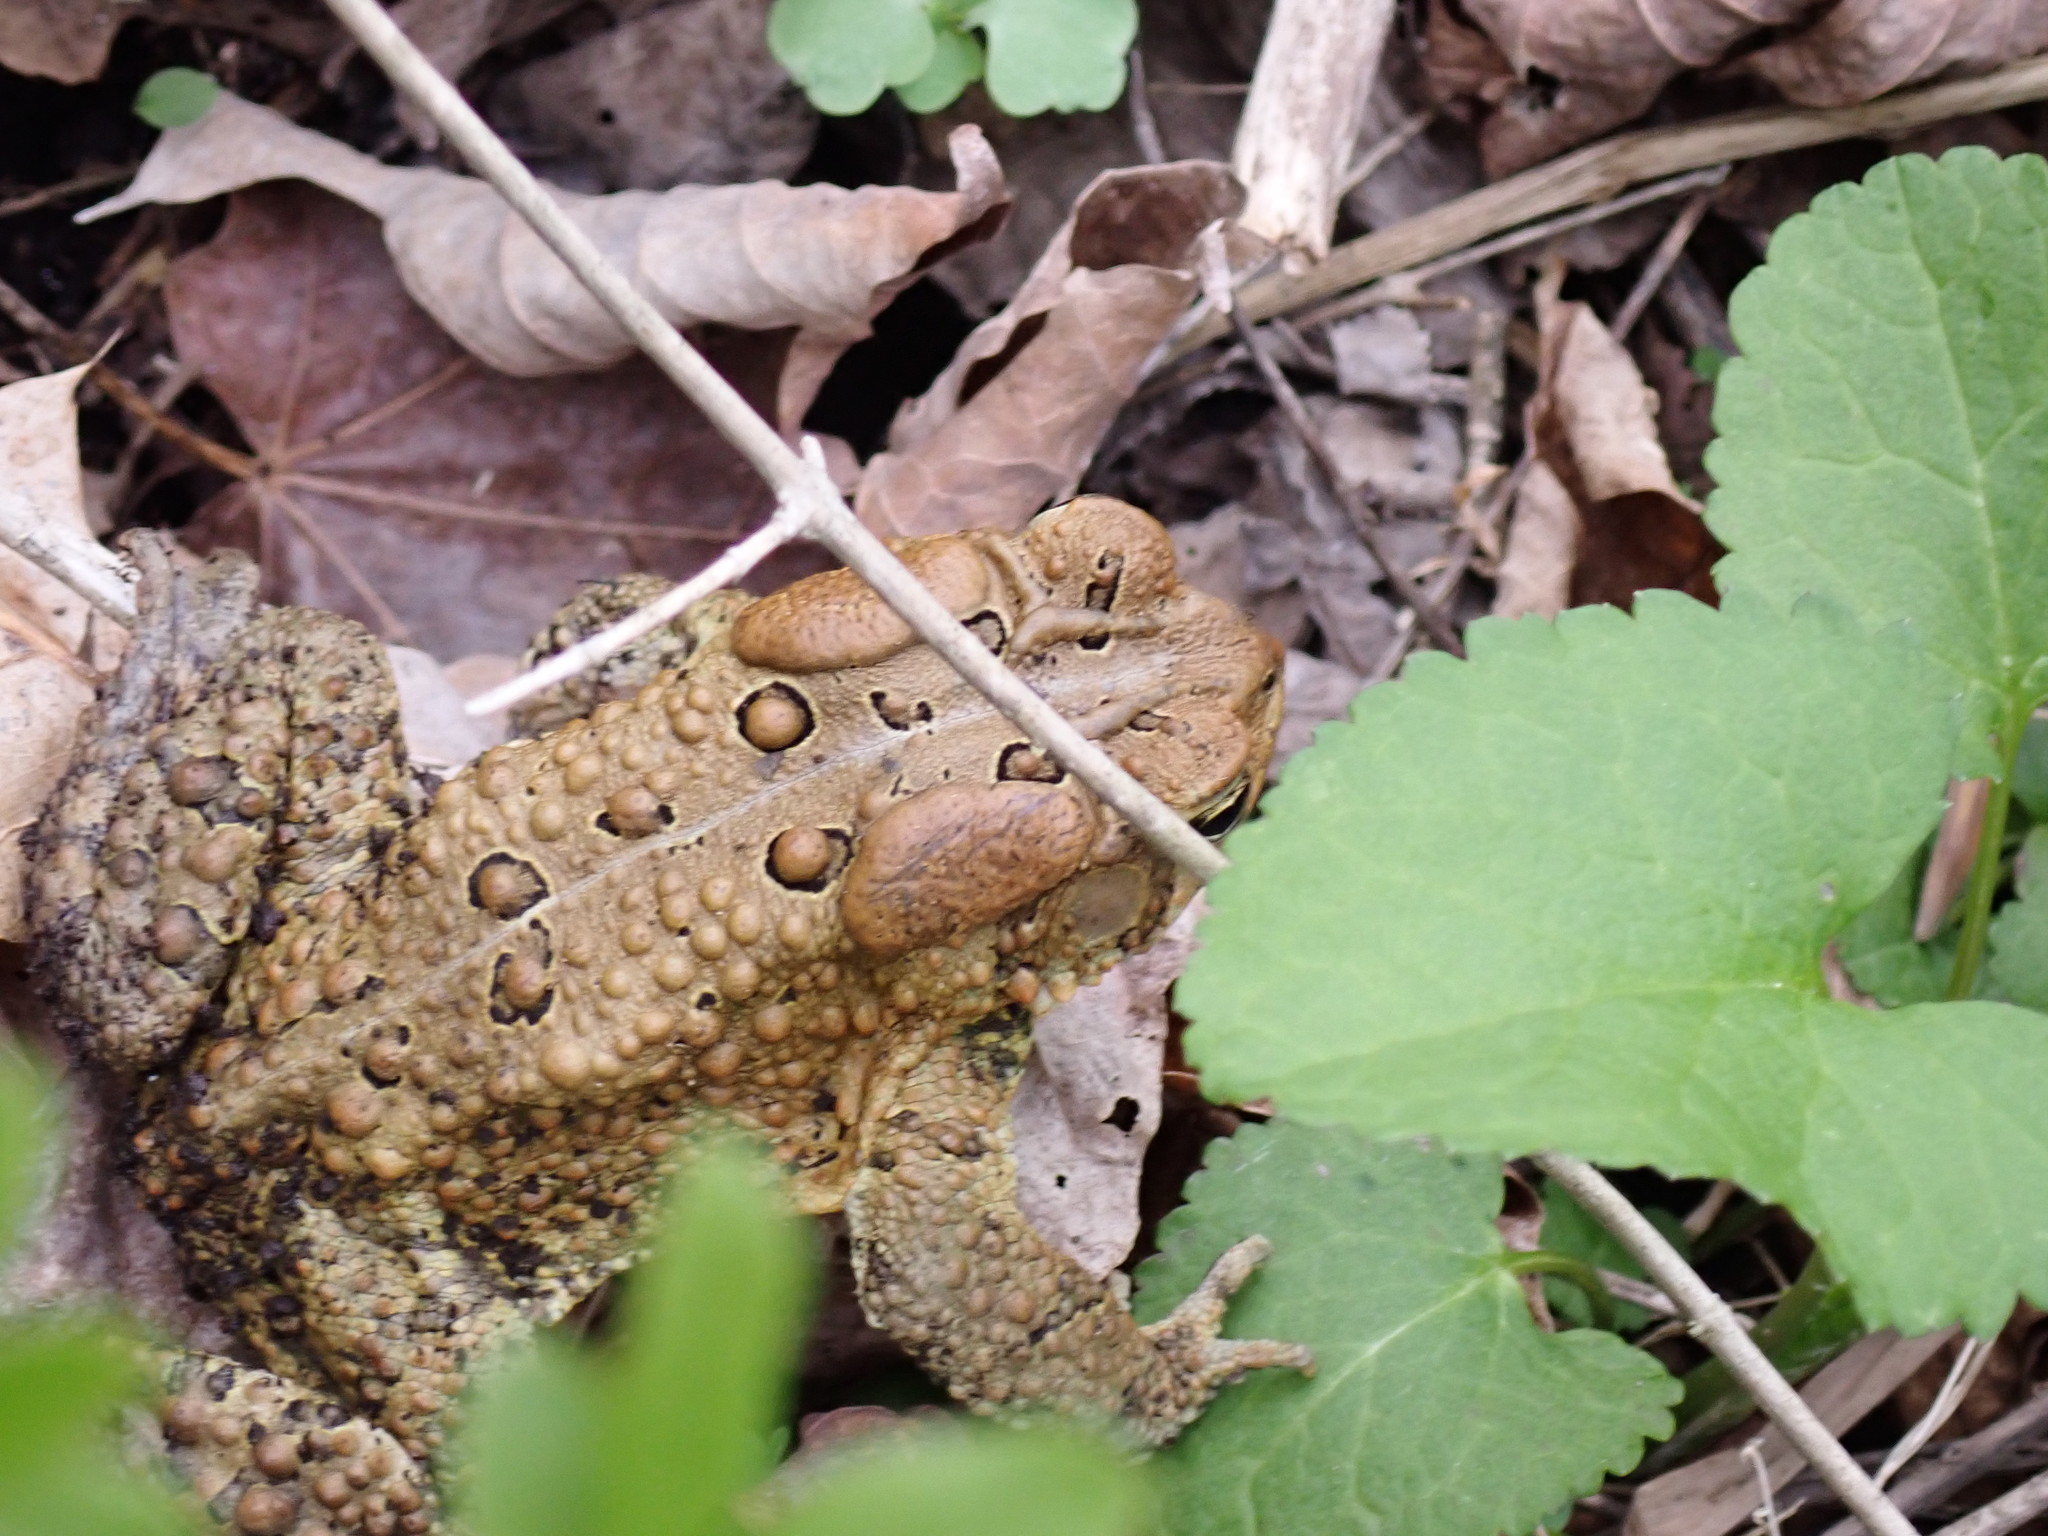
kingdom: Animalia
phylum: Chordata
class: Amphibia
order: Anura
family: Bufonidae
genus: Anaxyrus
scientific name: Anaxyrus americanus
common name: American toad
